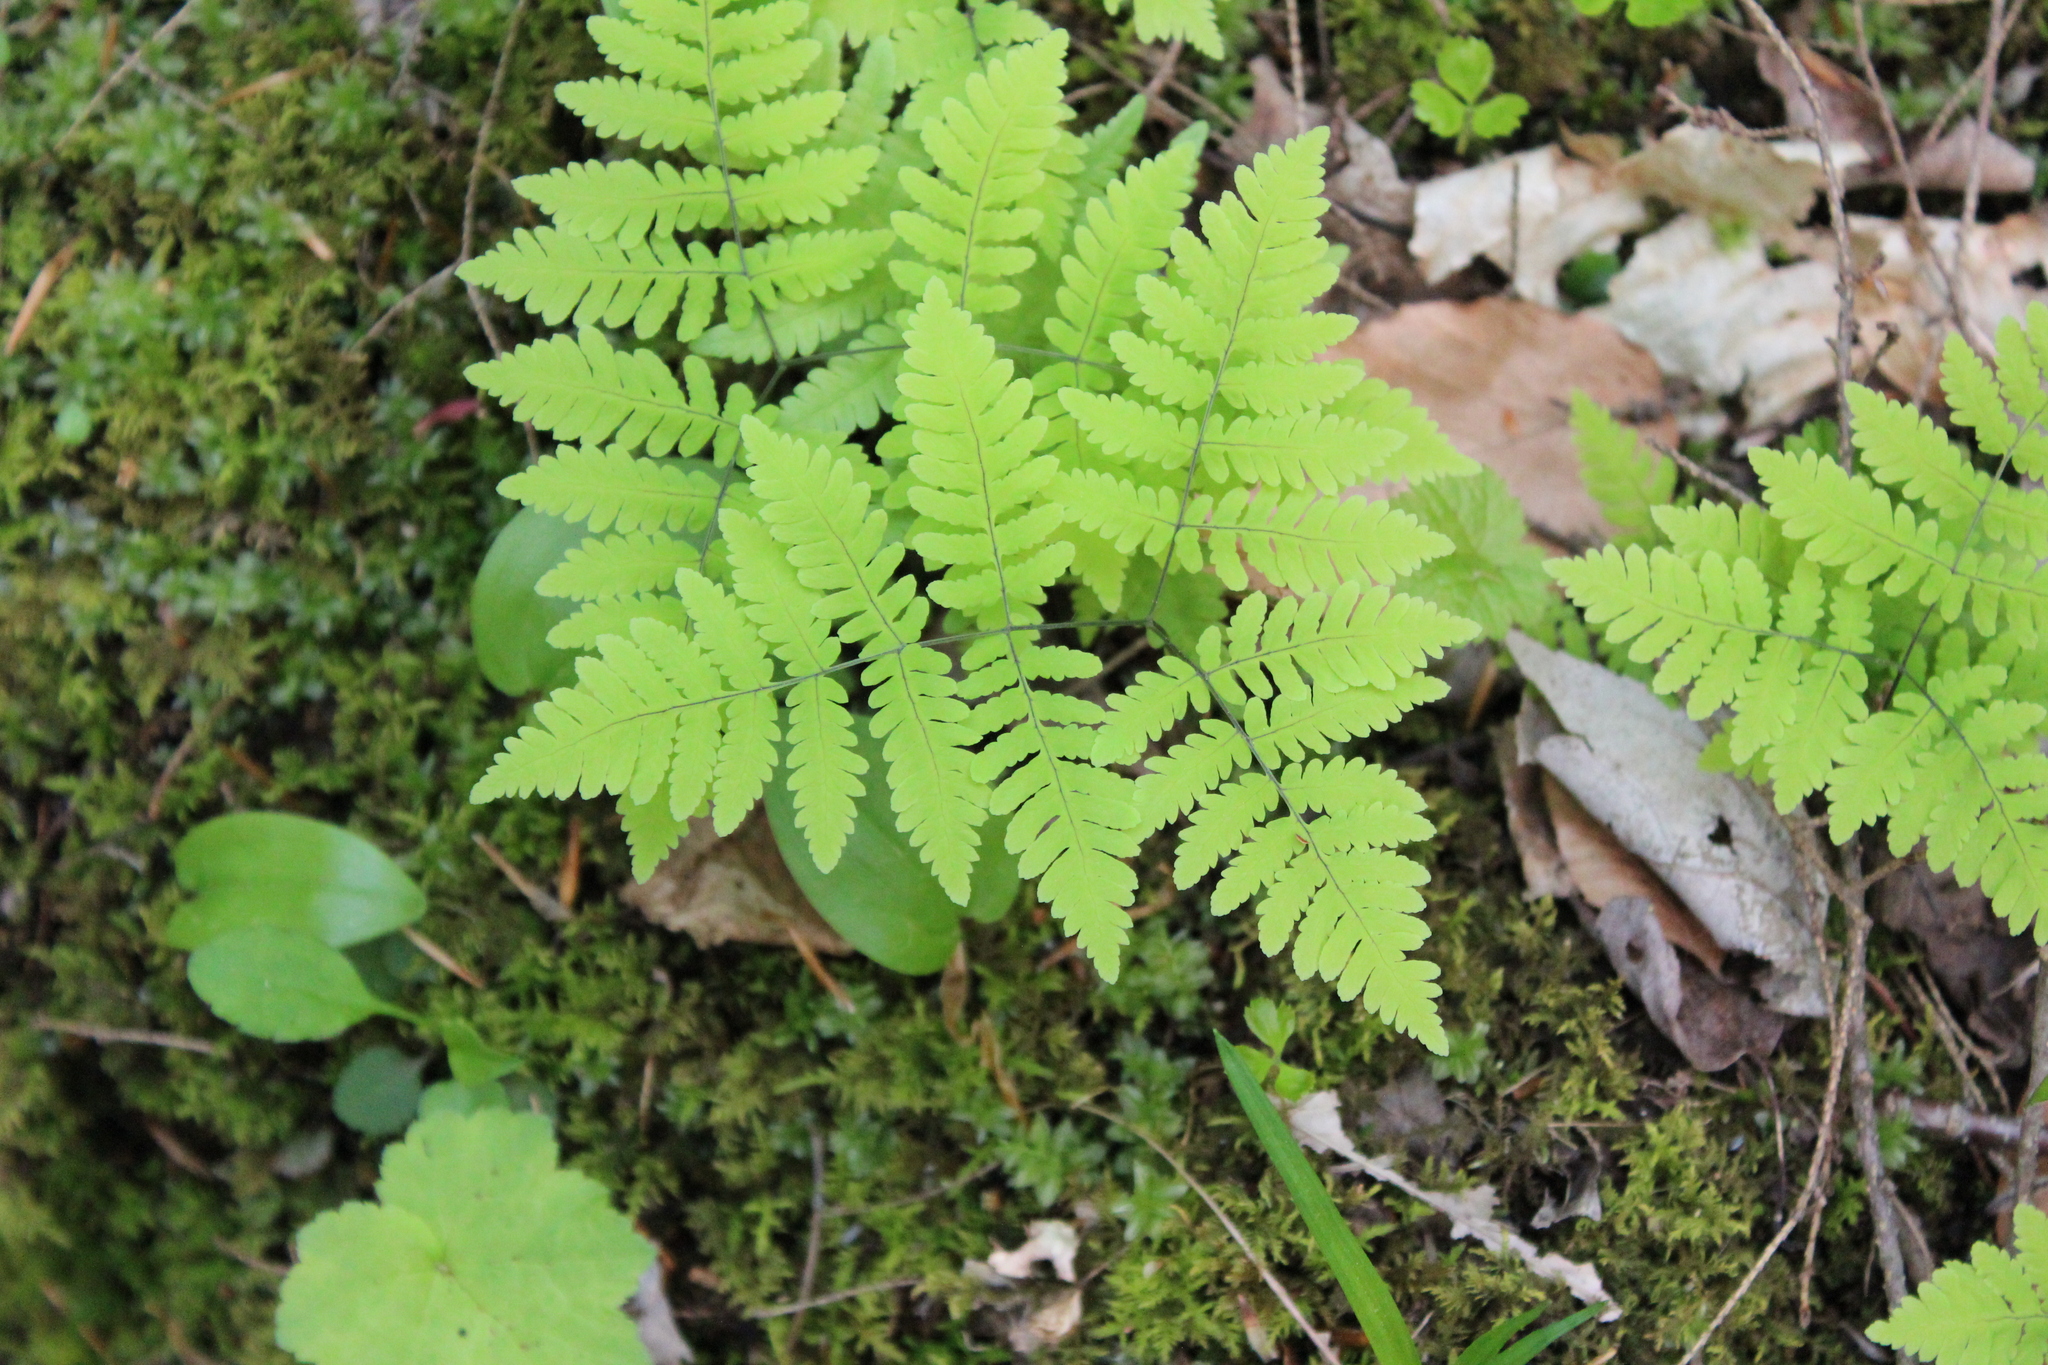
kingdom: Plantae
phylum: Tracheophyta
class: Polypodiopsida
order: Polypodiales
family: Cystopteridaceae
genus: Gymnocarpium
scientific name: Gymnocarpium dryopteris
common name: Oak fern
